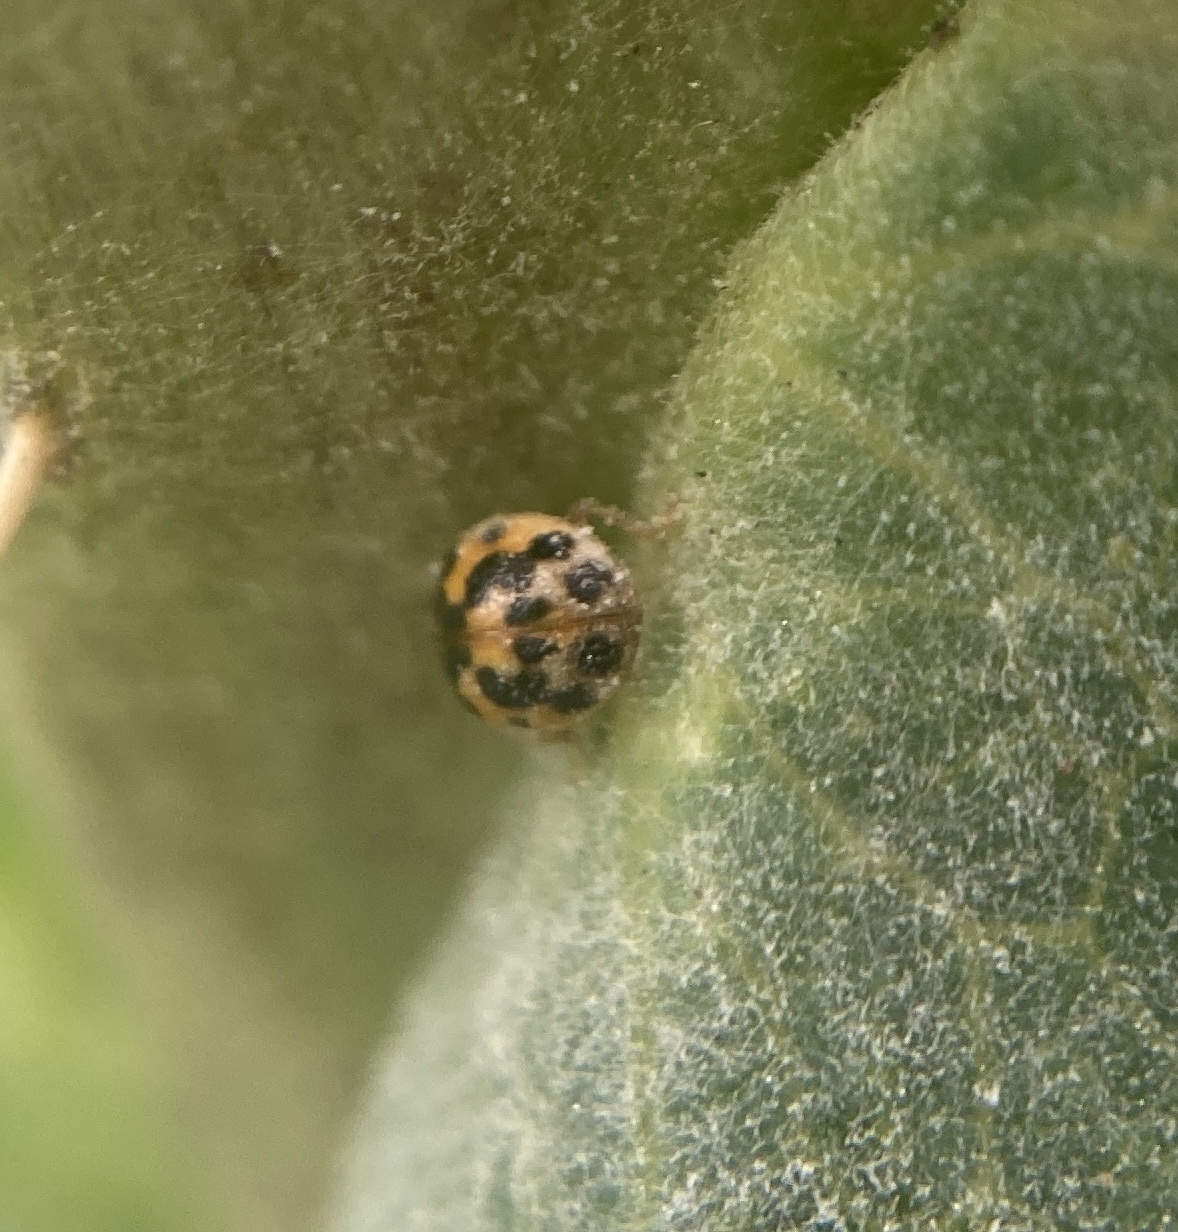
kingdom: Animalia
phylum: Arthropoda
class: Insecta
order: Coleoptera
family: Coccinellidae
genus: Psyllobora
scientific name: Psyllobora vigintimaculata
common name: Ladybird beetle
